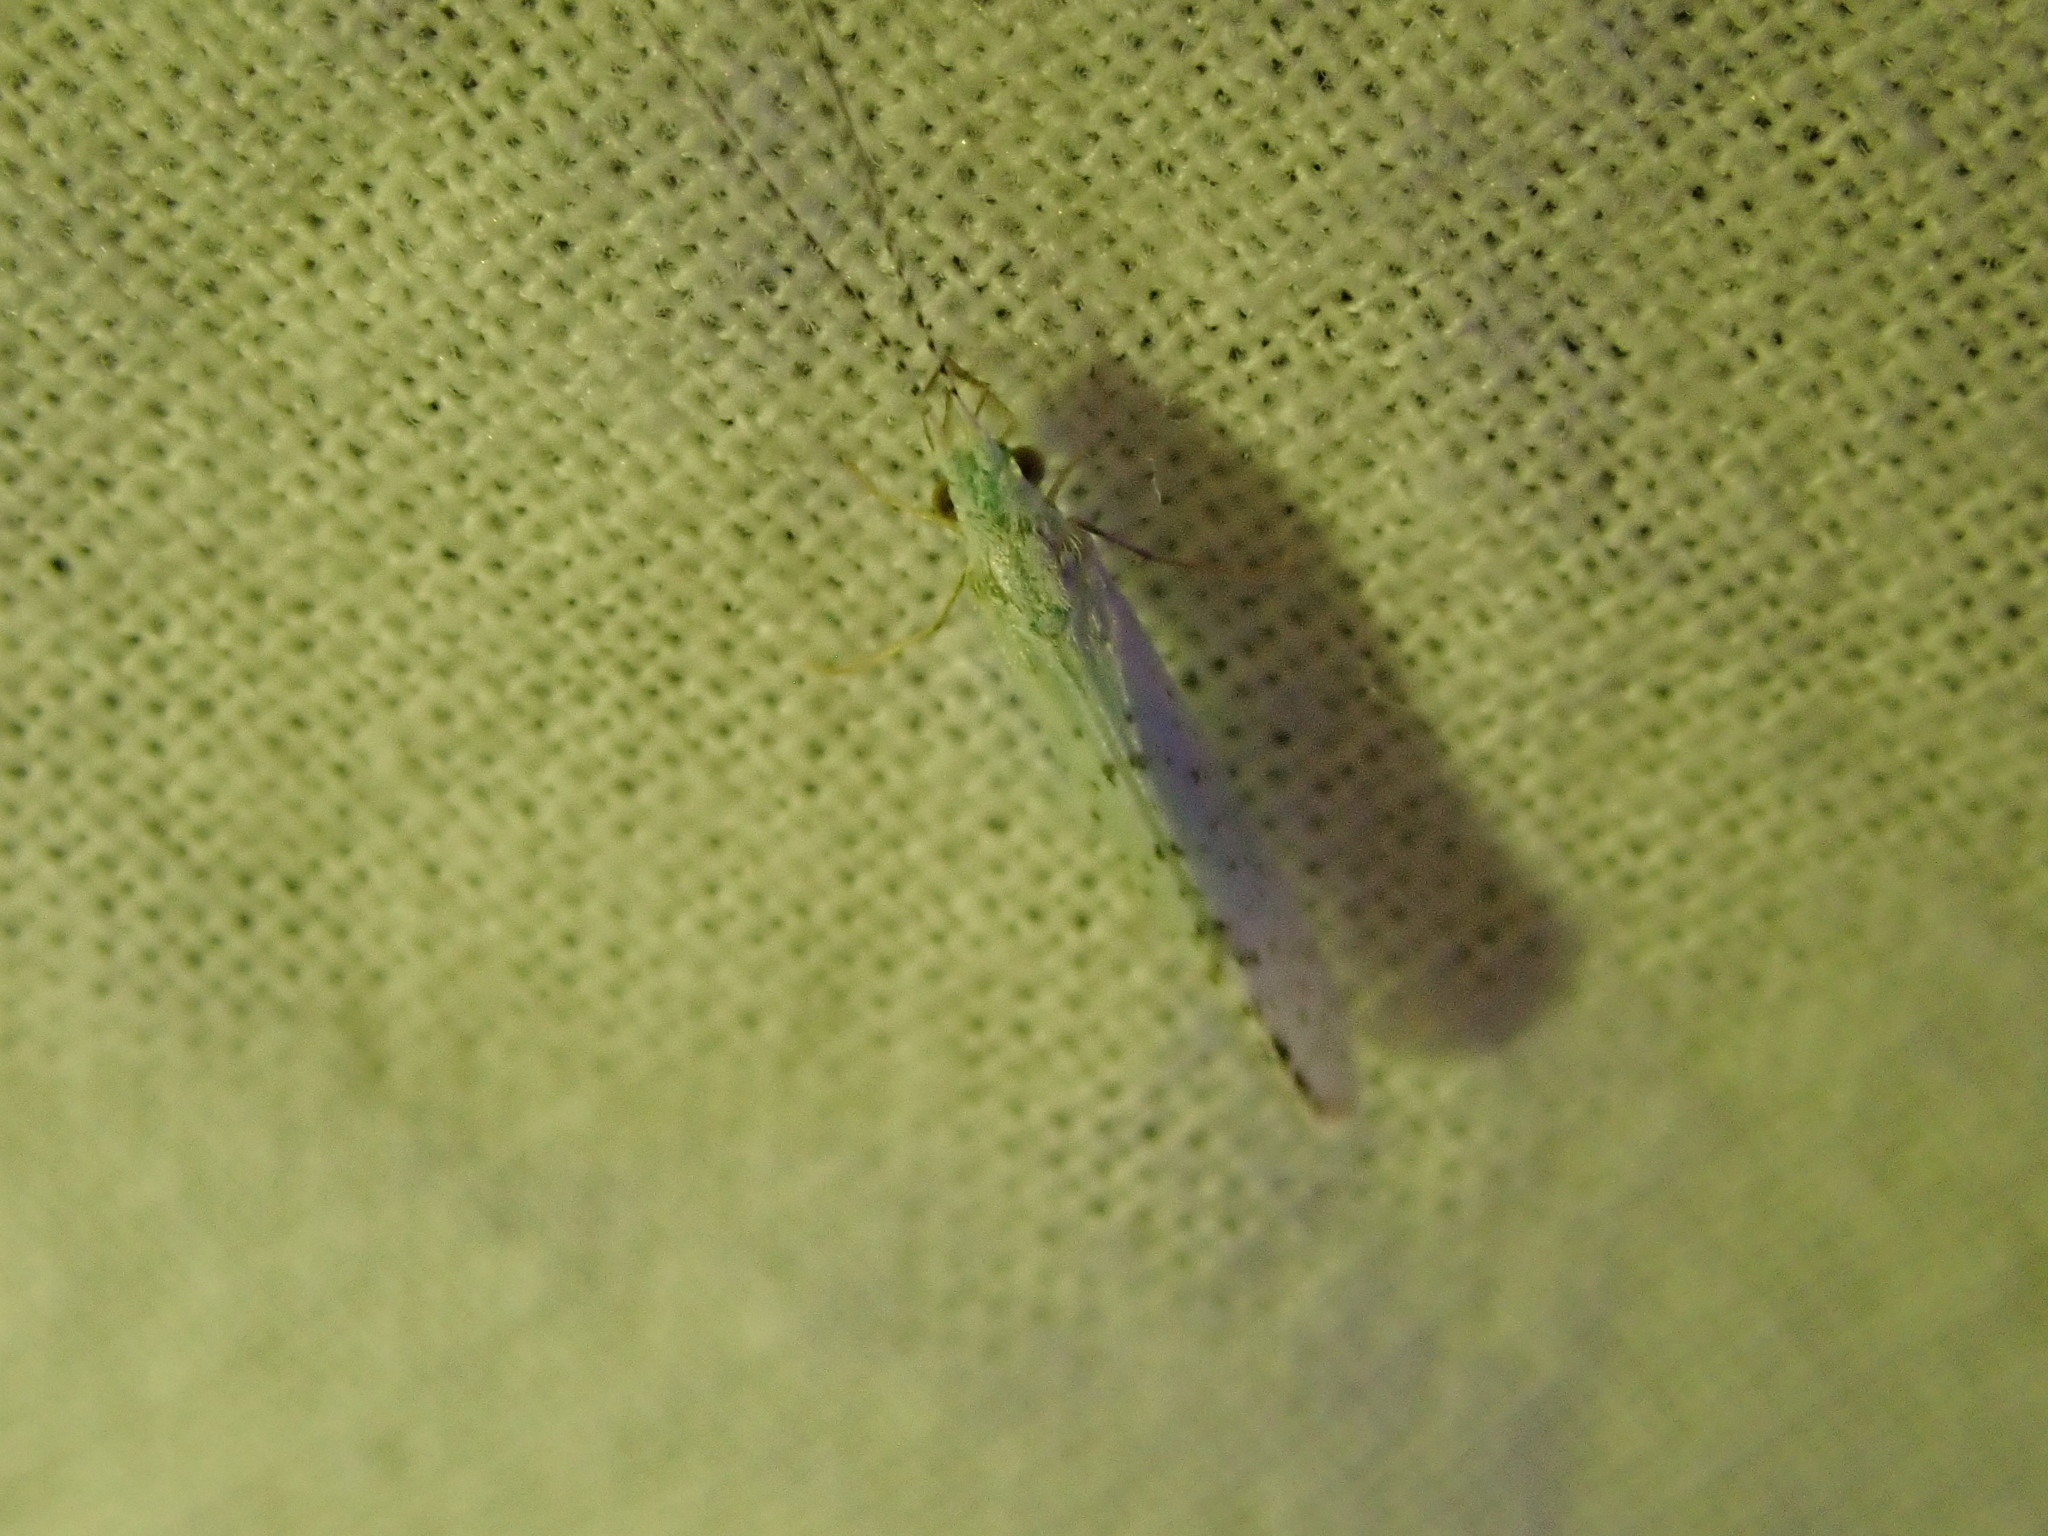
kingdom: Animalia
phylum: Arthropoda
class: Insecta
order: Trichoptera
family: Leptoceridae
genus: Nectopsyche
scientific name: Nectopsyche candida
